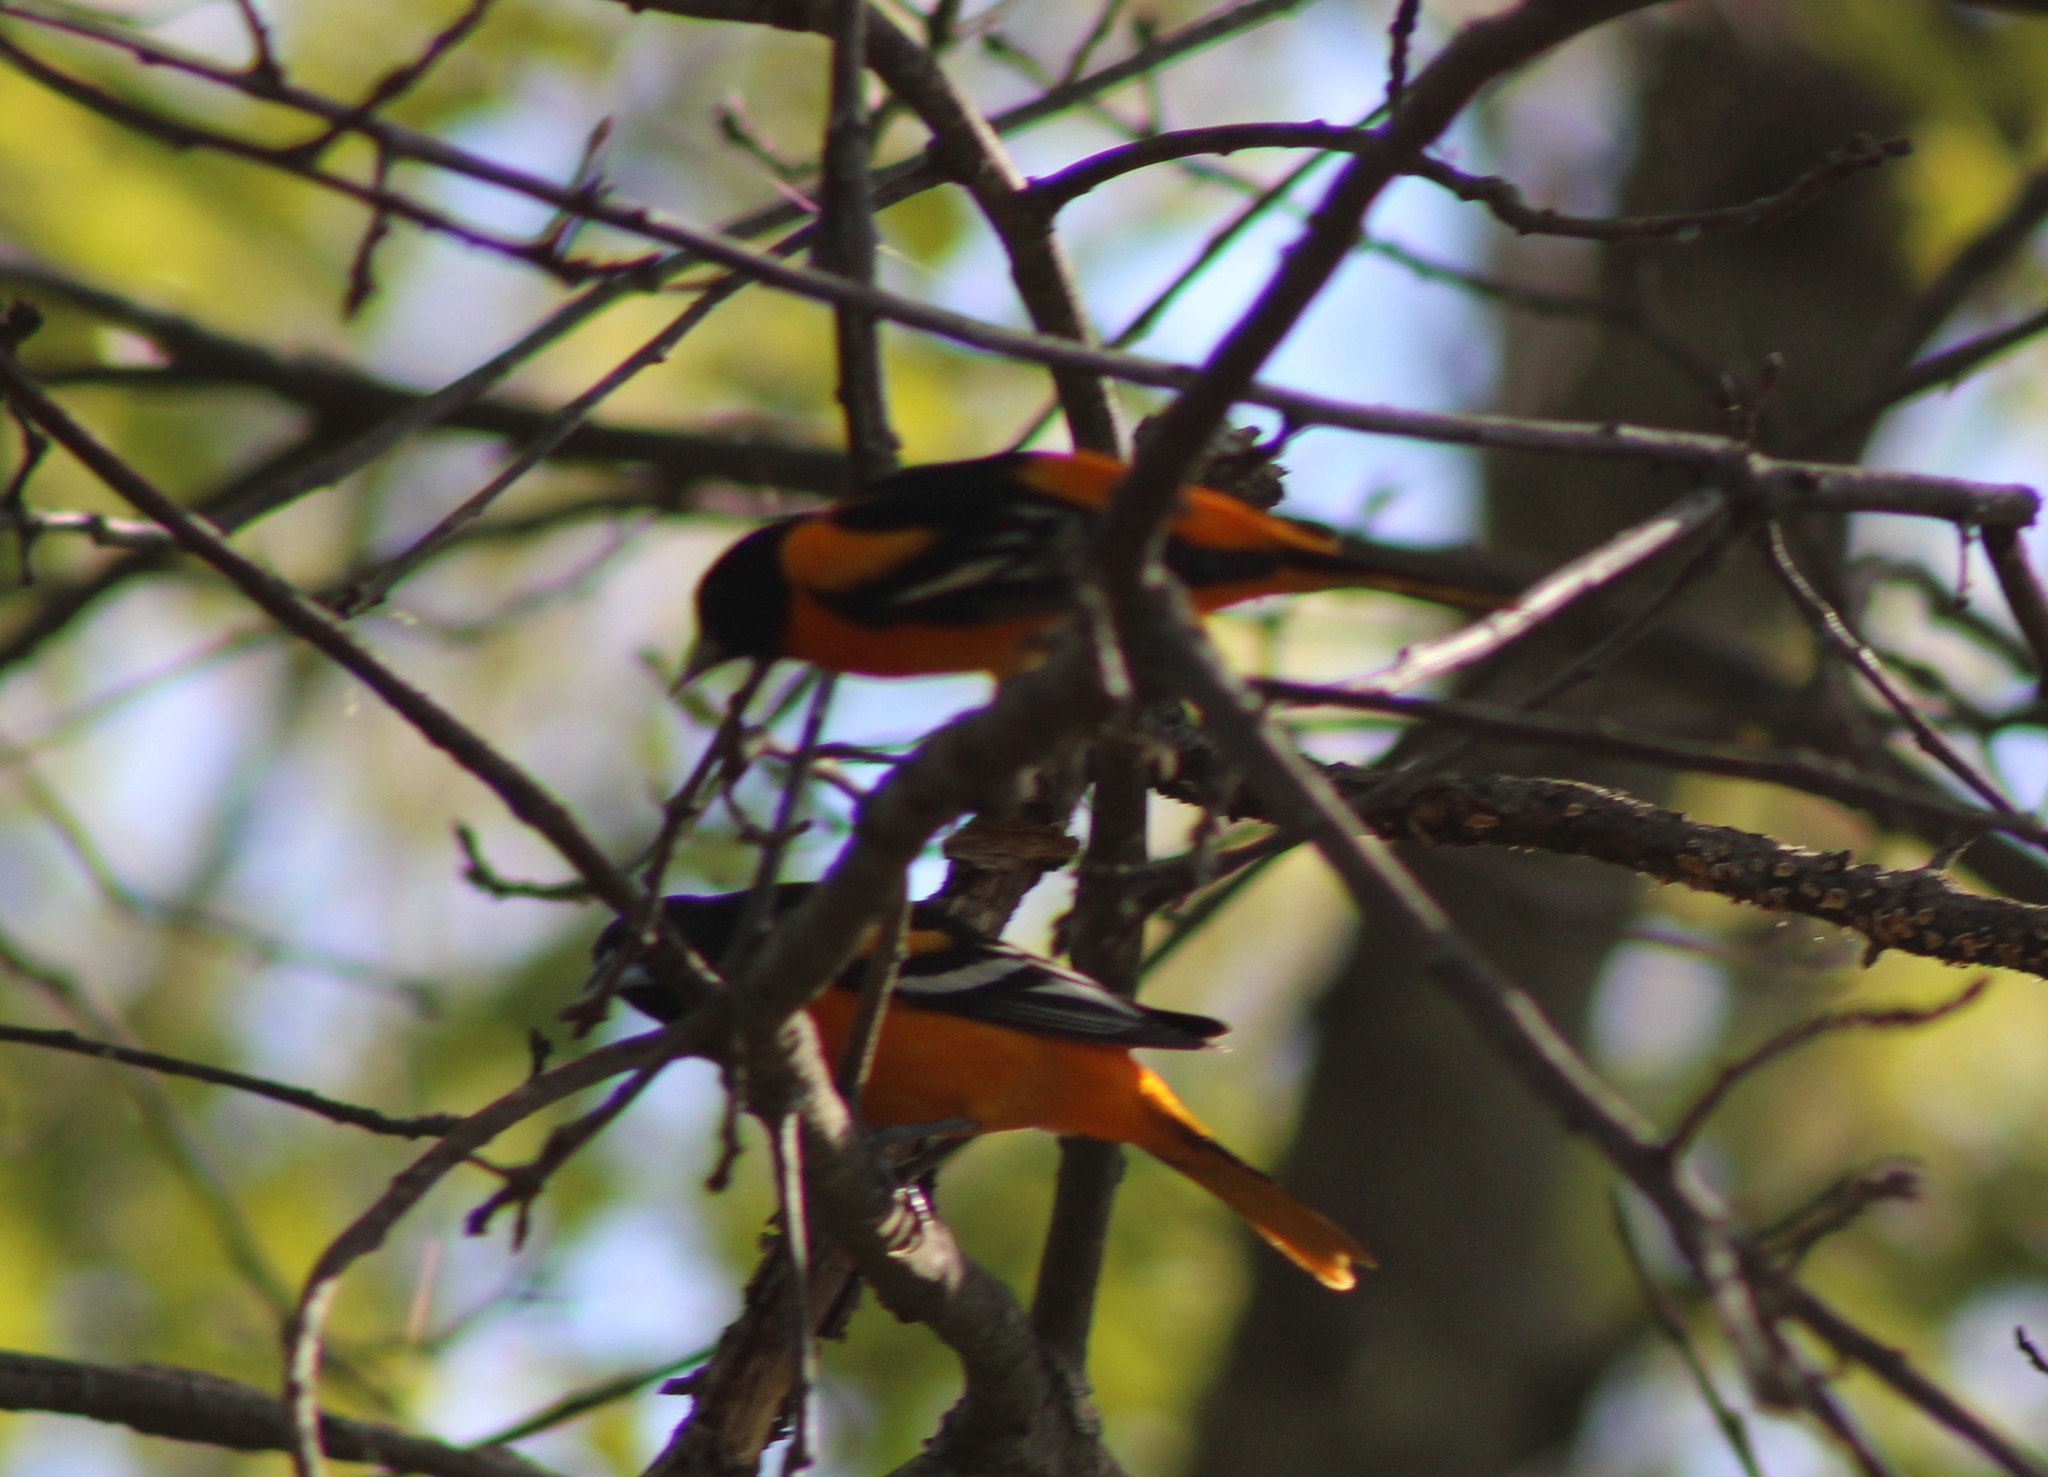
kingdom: Animalia
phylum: Chordata
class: Aves
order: Passeriformes
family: Icteridae
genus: Icterus
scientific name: Icterus galbula
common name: Baltimore oriole
